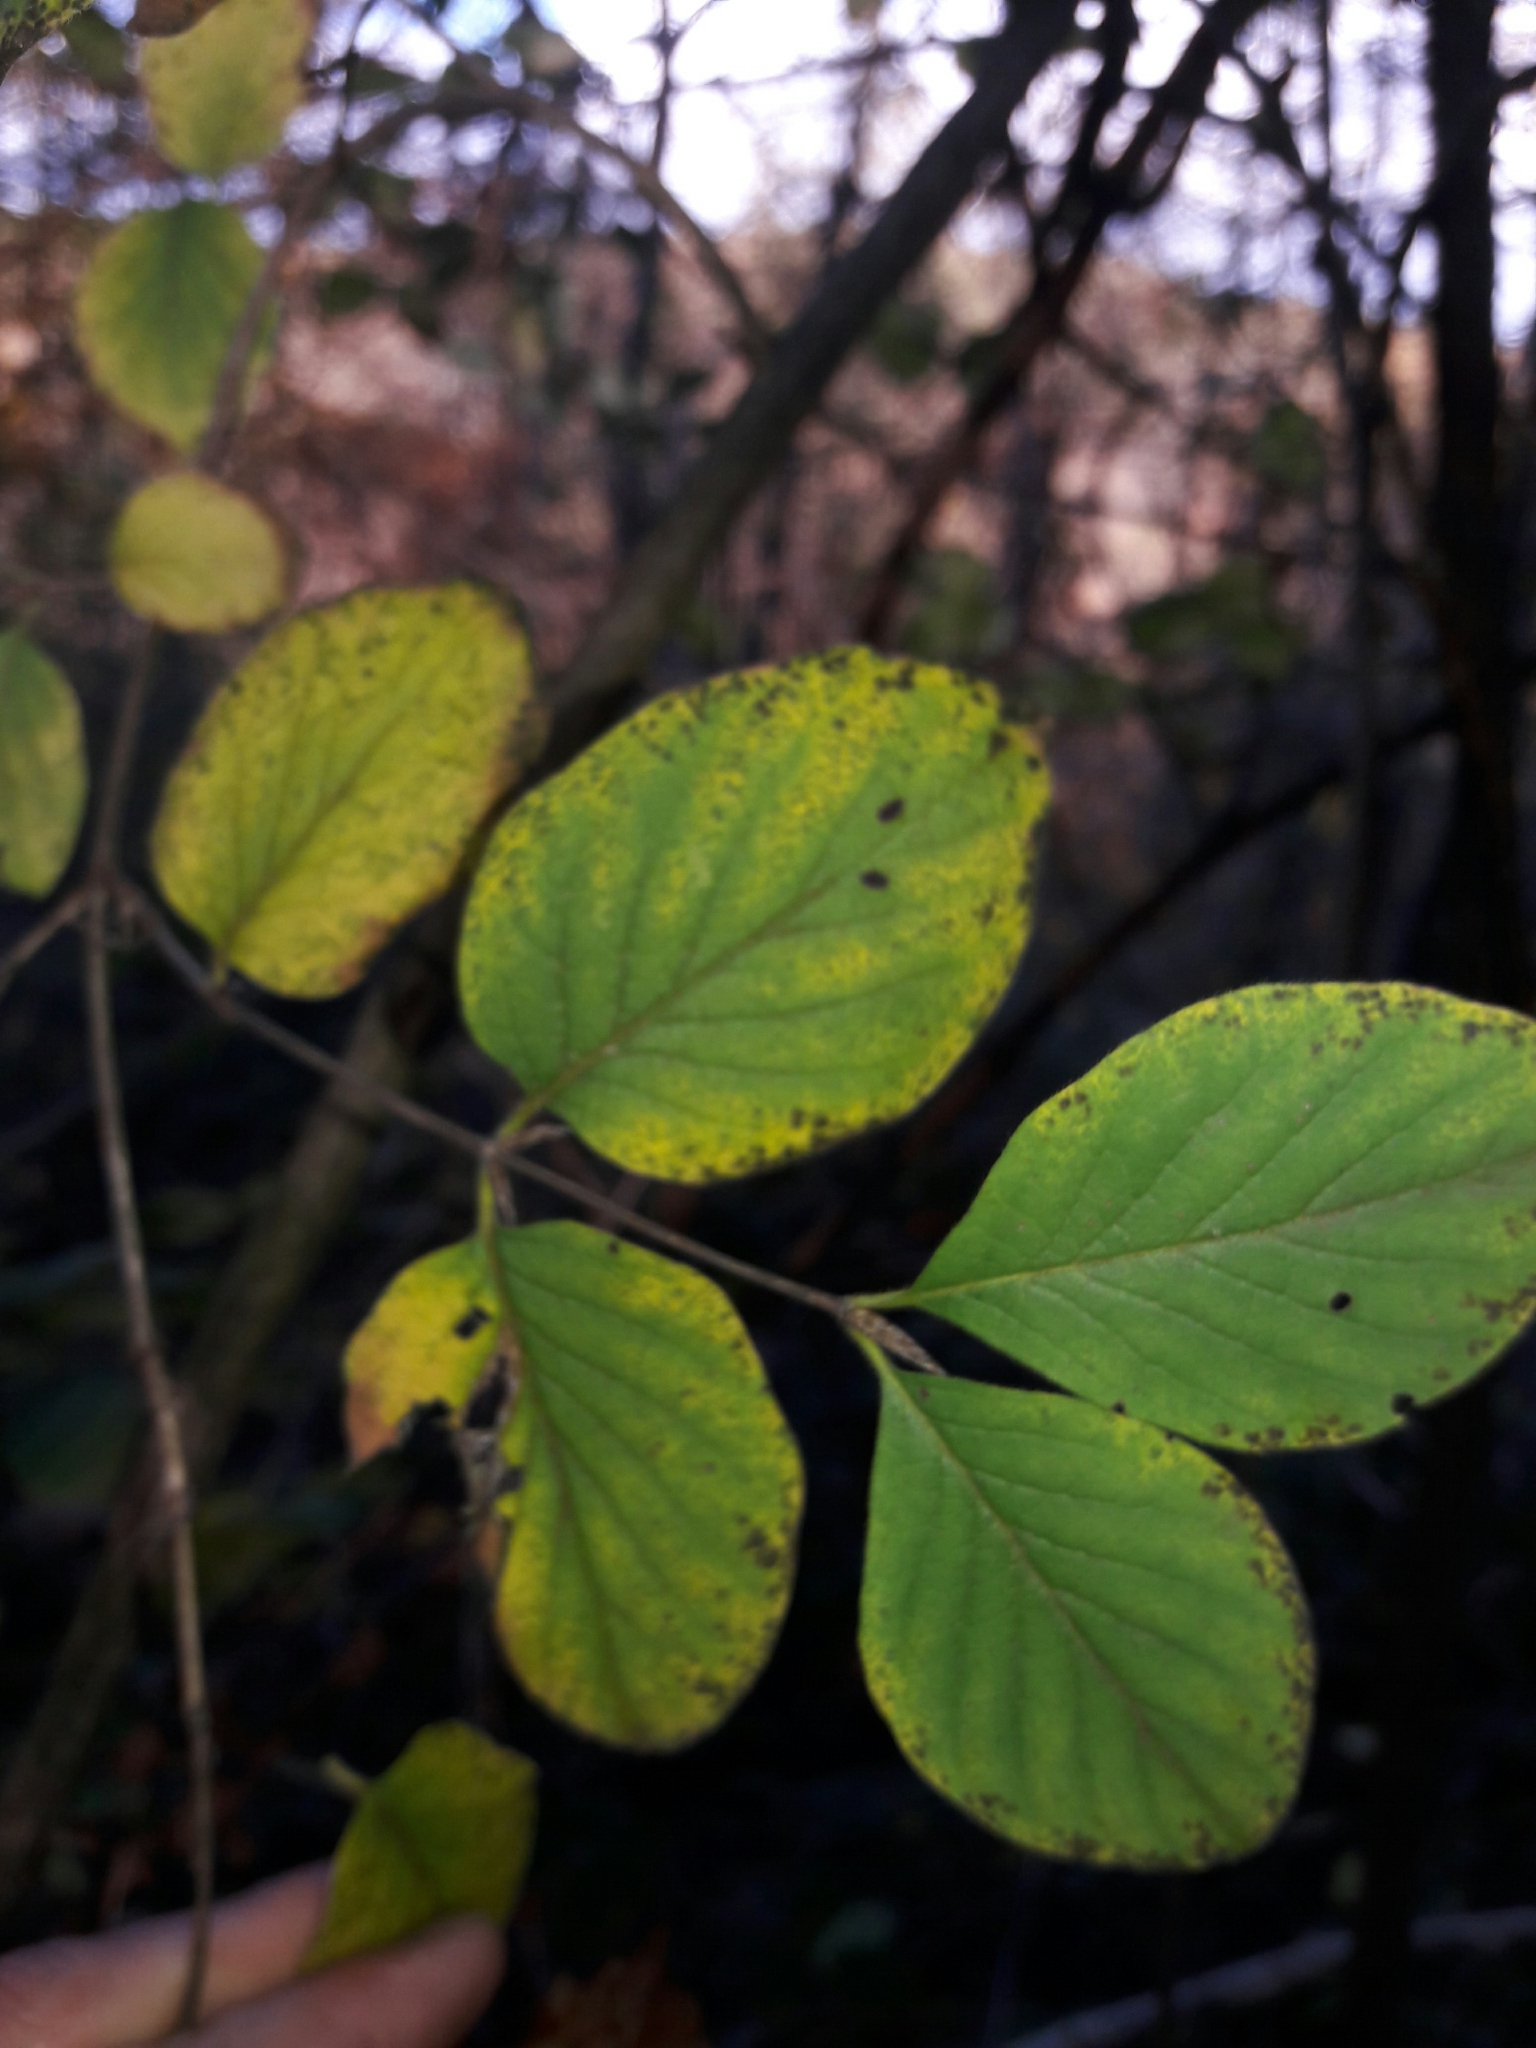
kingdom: Plantae
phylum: Tracheophyta
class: Magnoliopsida
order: Dipsacales
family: Caprifoliaceae
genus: Lonicera
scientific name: Lonicera xylosteum
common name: Fly honeysuckle
